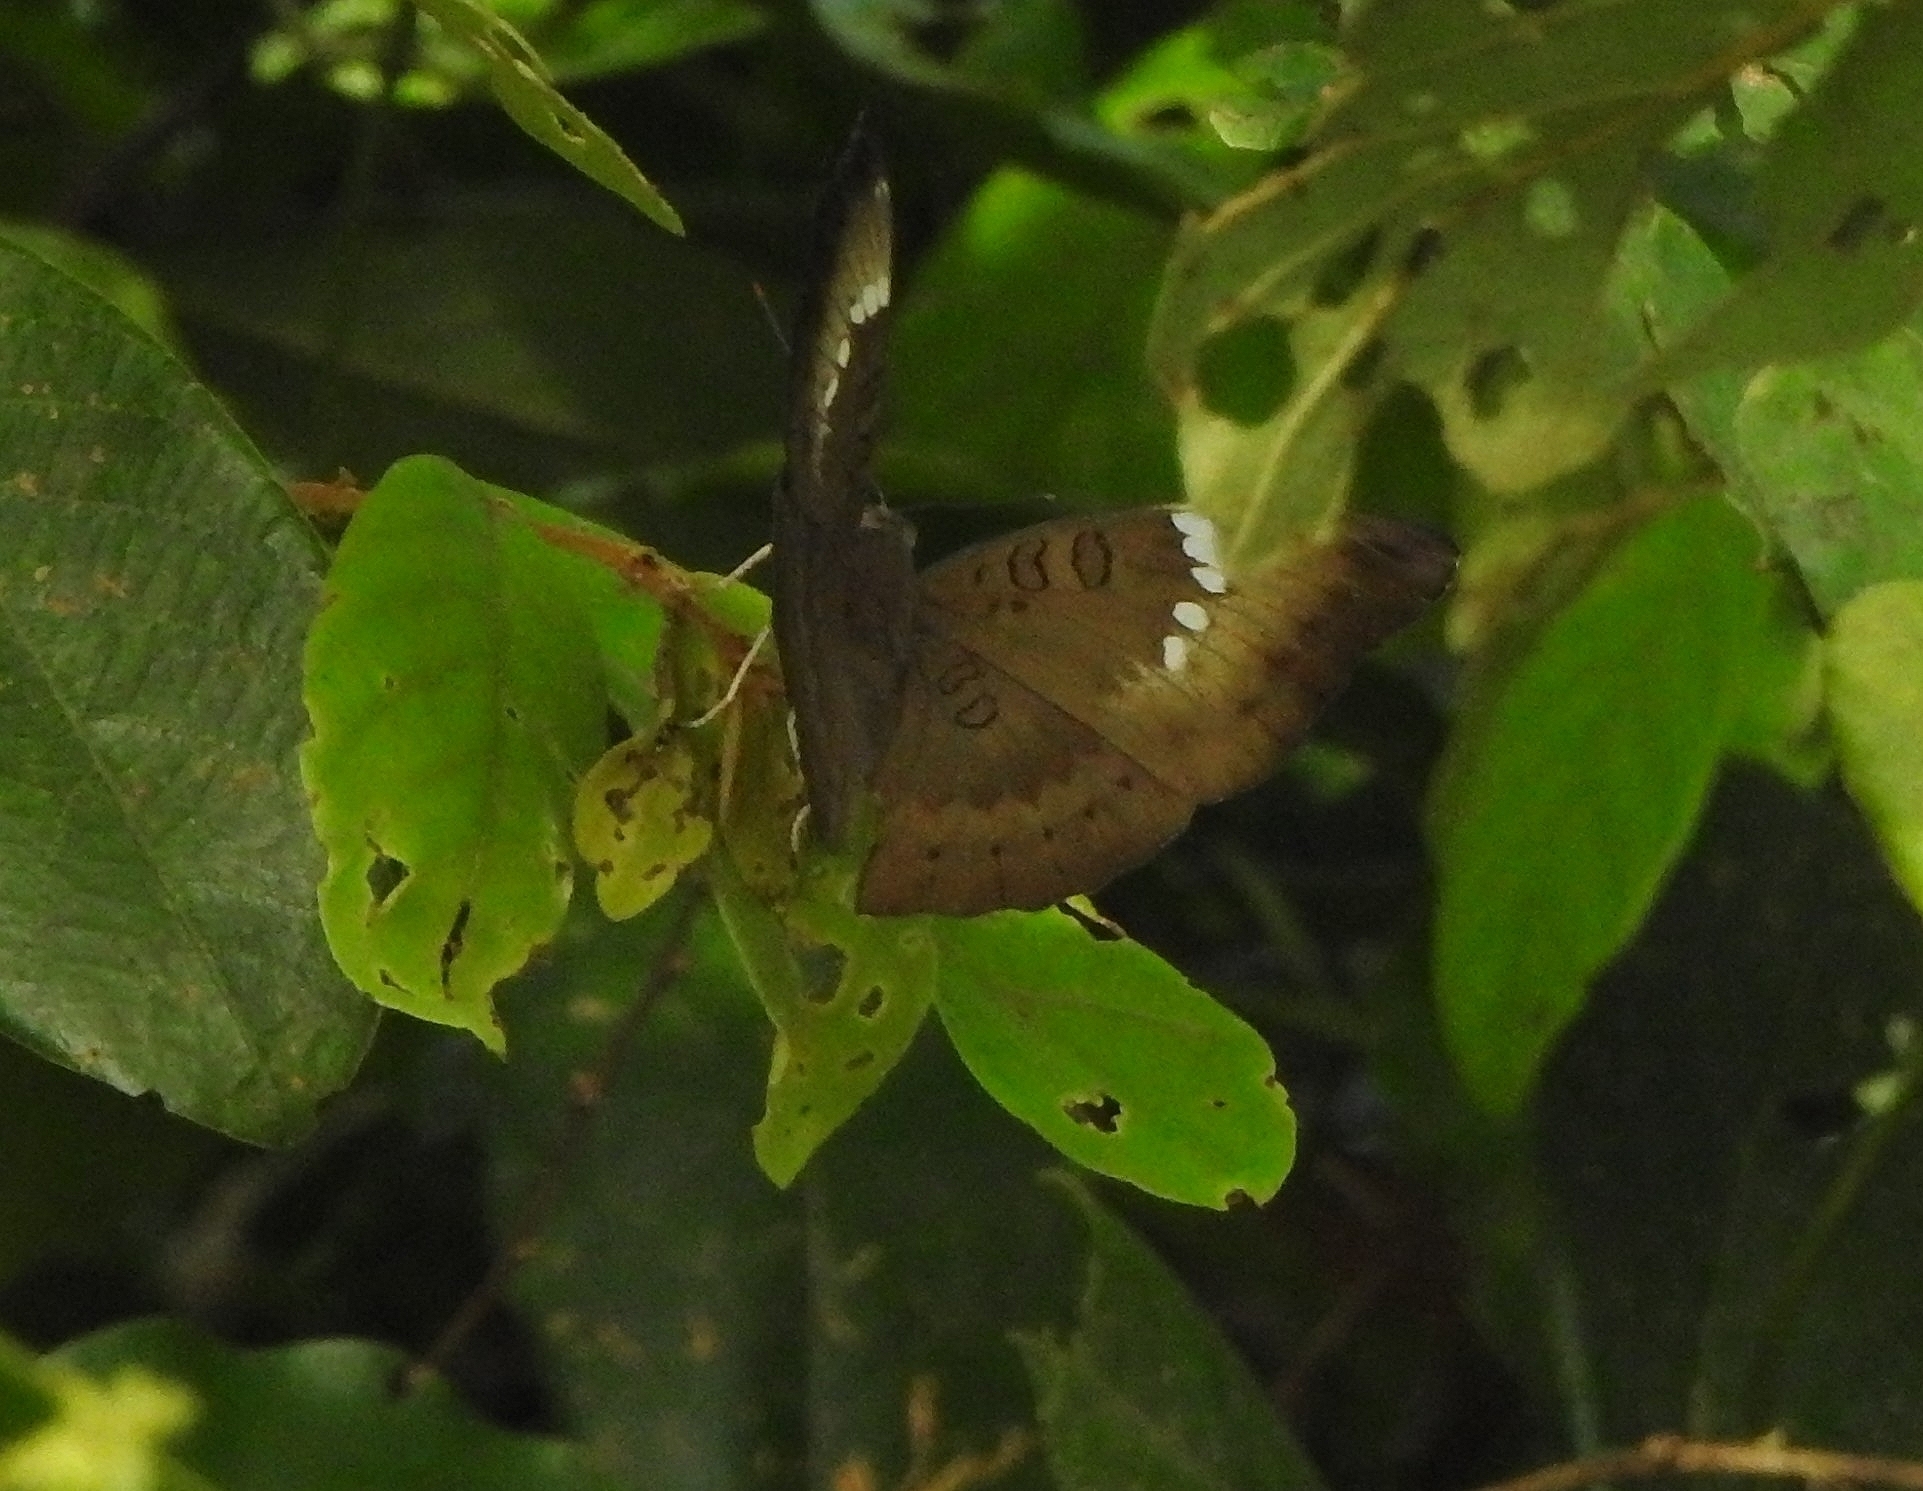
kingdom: Animalia
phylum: Arthropoda
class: Insecta
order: Lepidoptera
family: Nymphalidae
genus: Euthalia
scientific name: Euthalia aconthea
